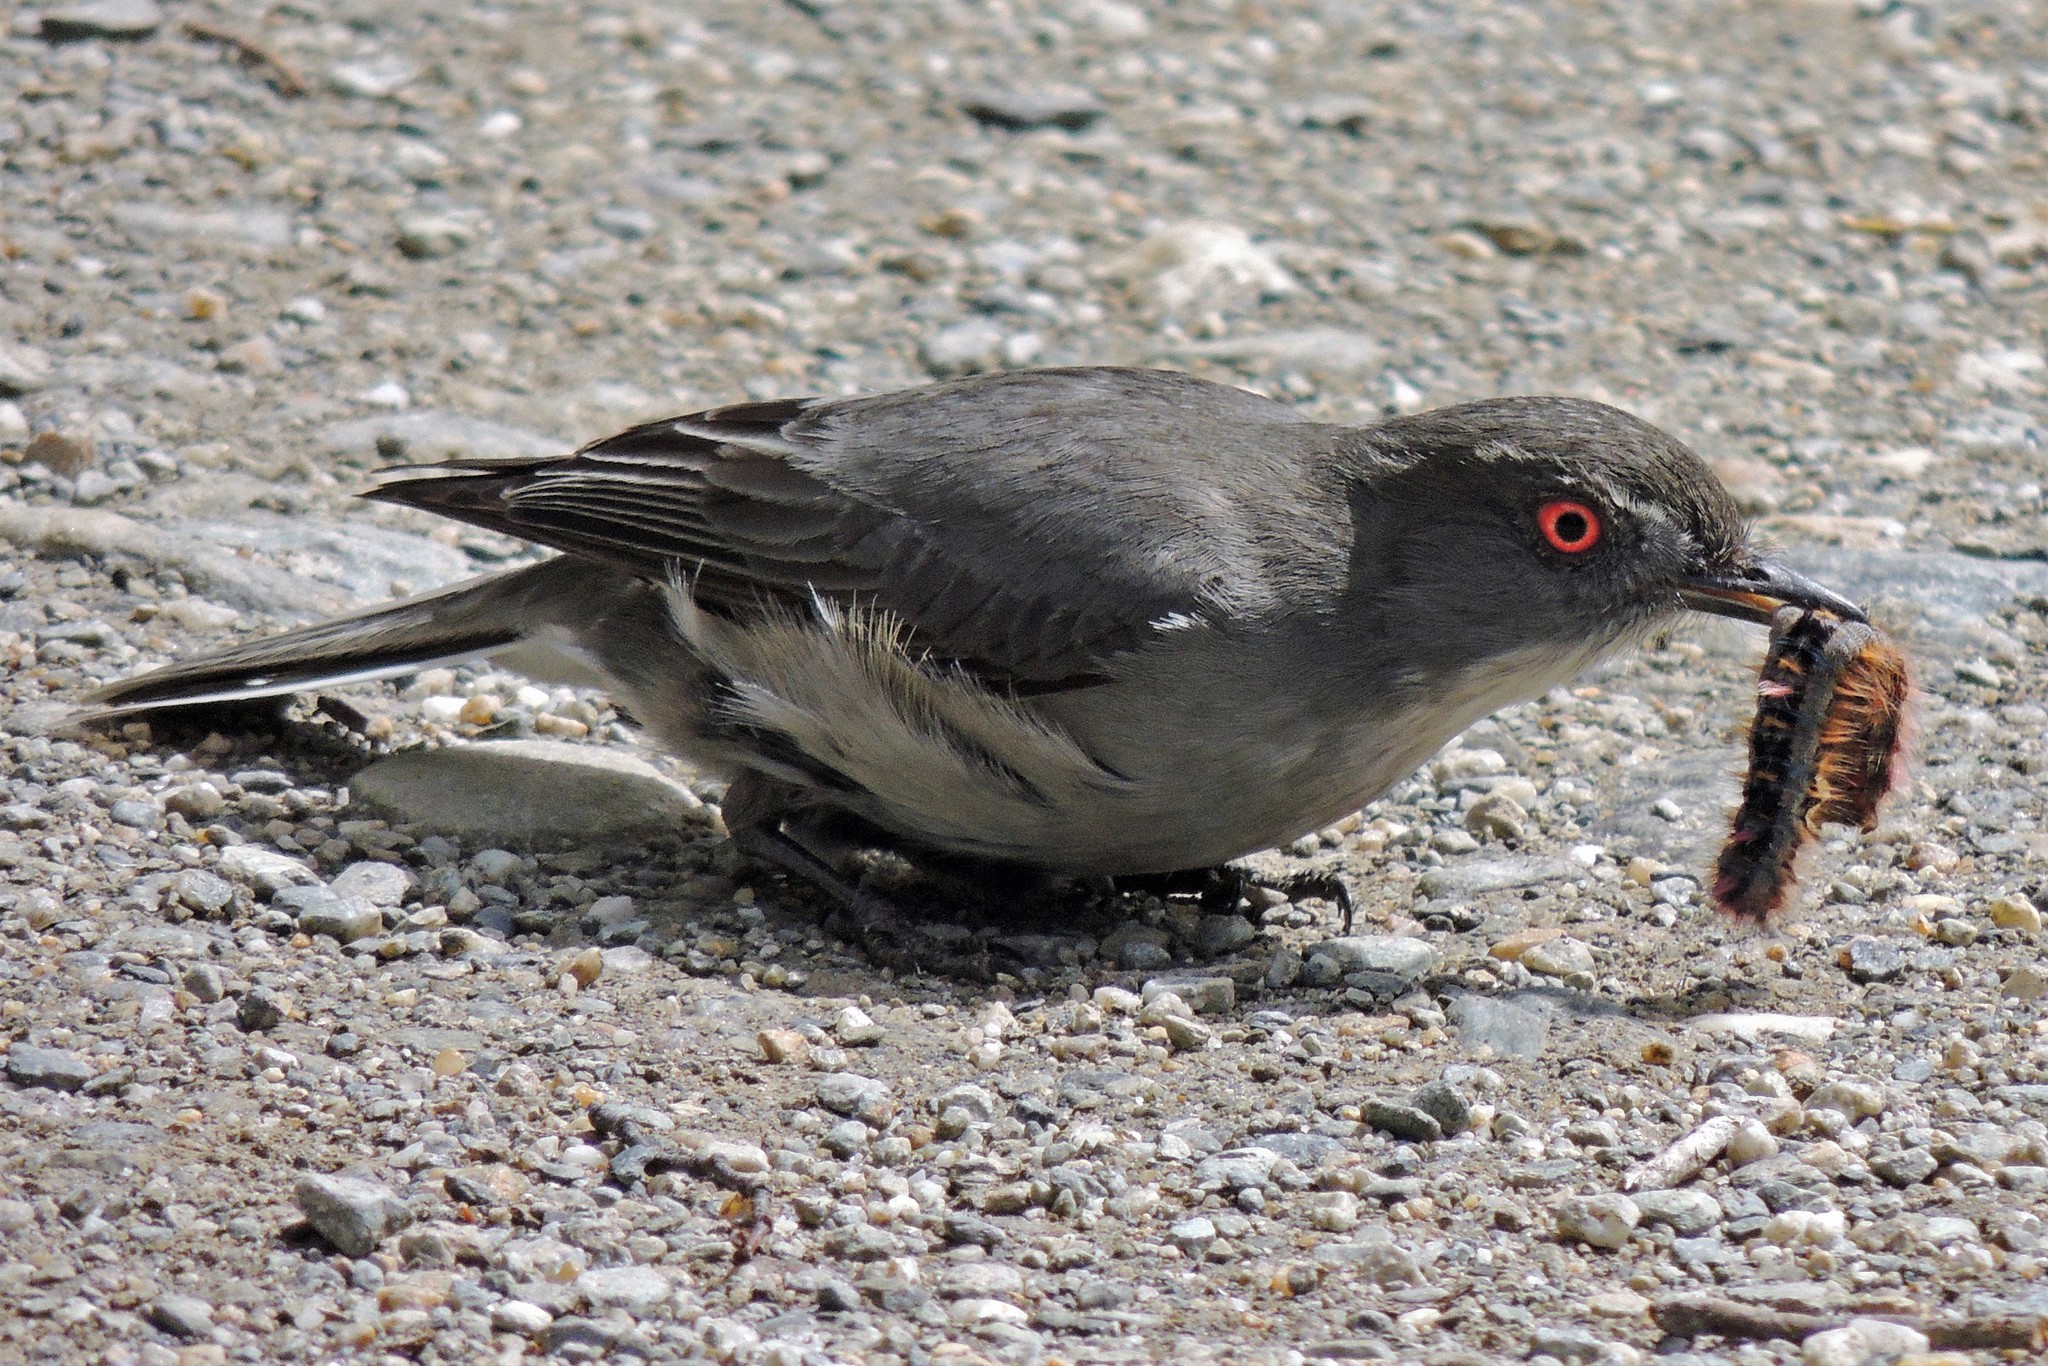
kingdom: Animalia
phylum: Chordata
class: Aves
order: Passeriformes
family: Tyrannidae
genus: Xolmis
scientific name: Xolmis pyrope
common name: Fire-eyed diucon
